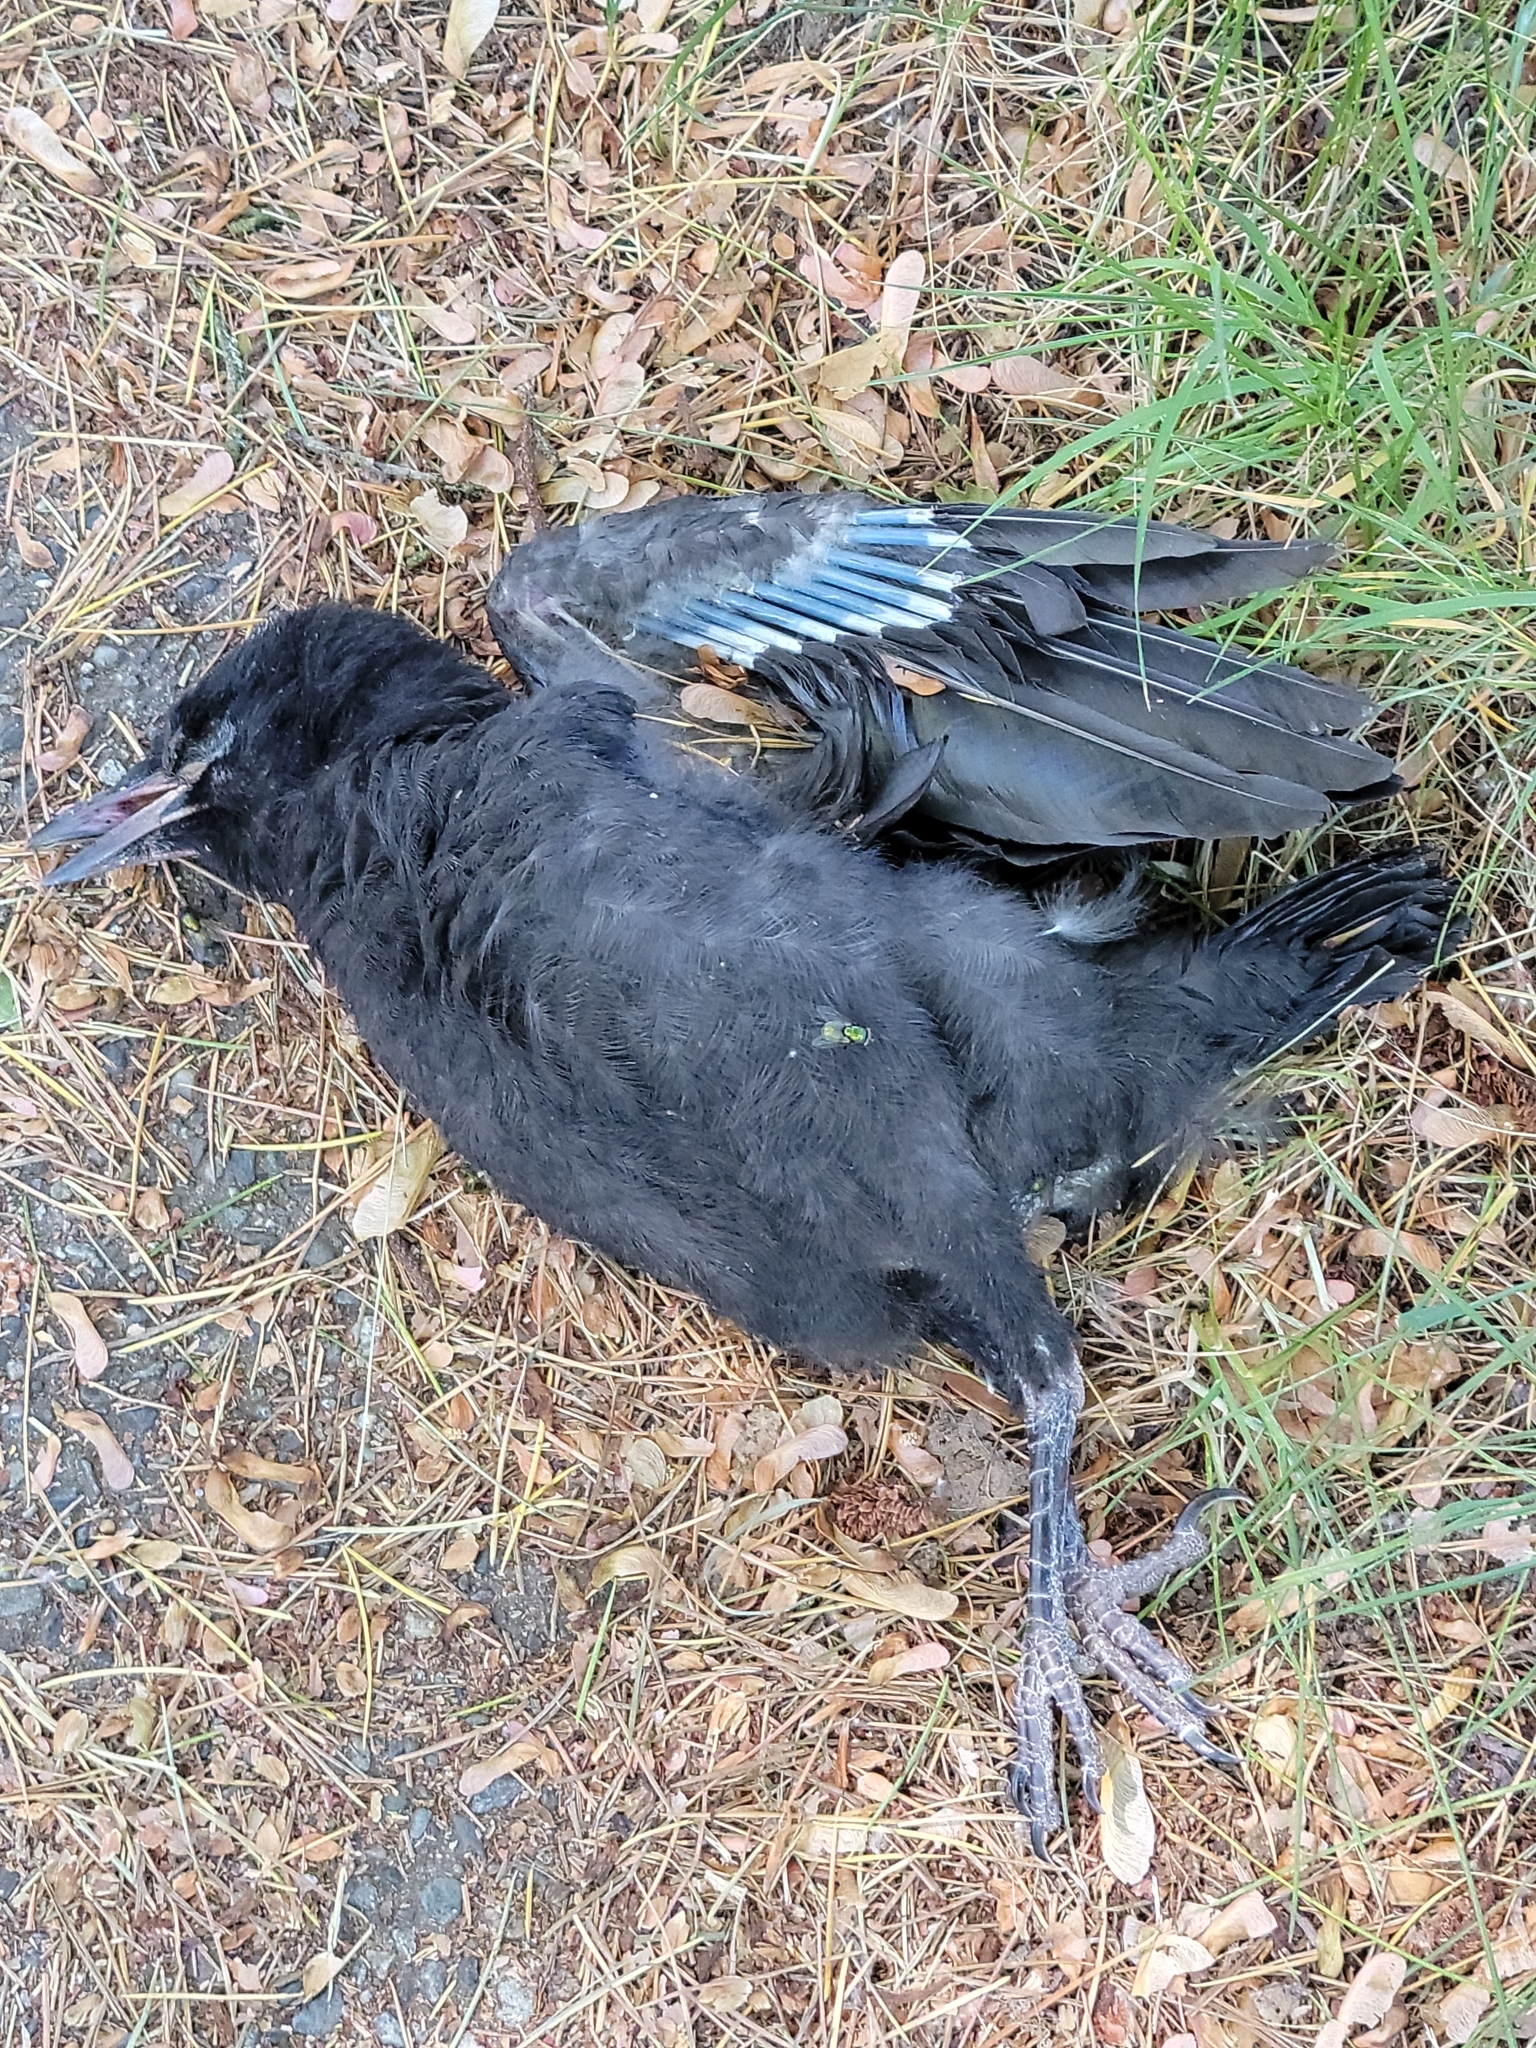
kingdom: Animalia
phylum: Chordata
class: Aves
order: Passeriformes
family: Corvidae
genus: Corvus
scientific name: Corvus brachyrhynchos
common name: American crow
